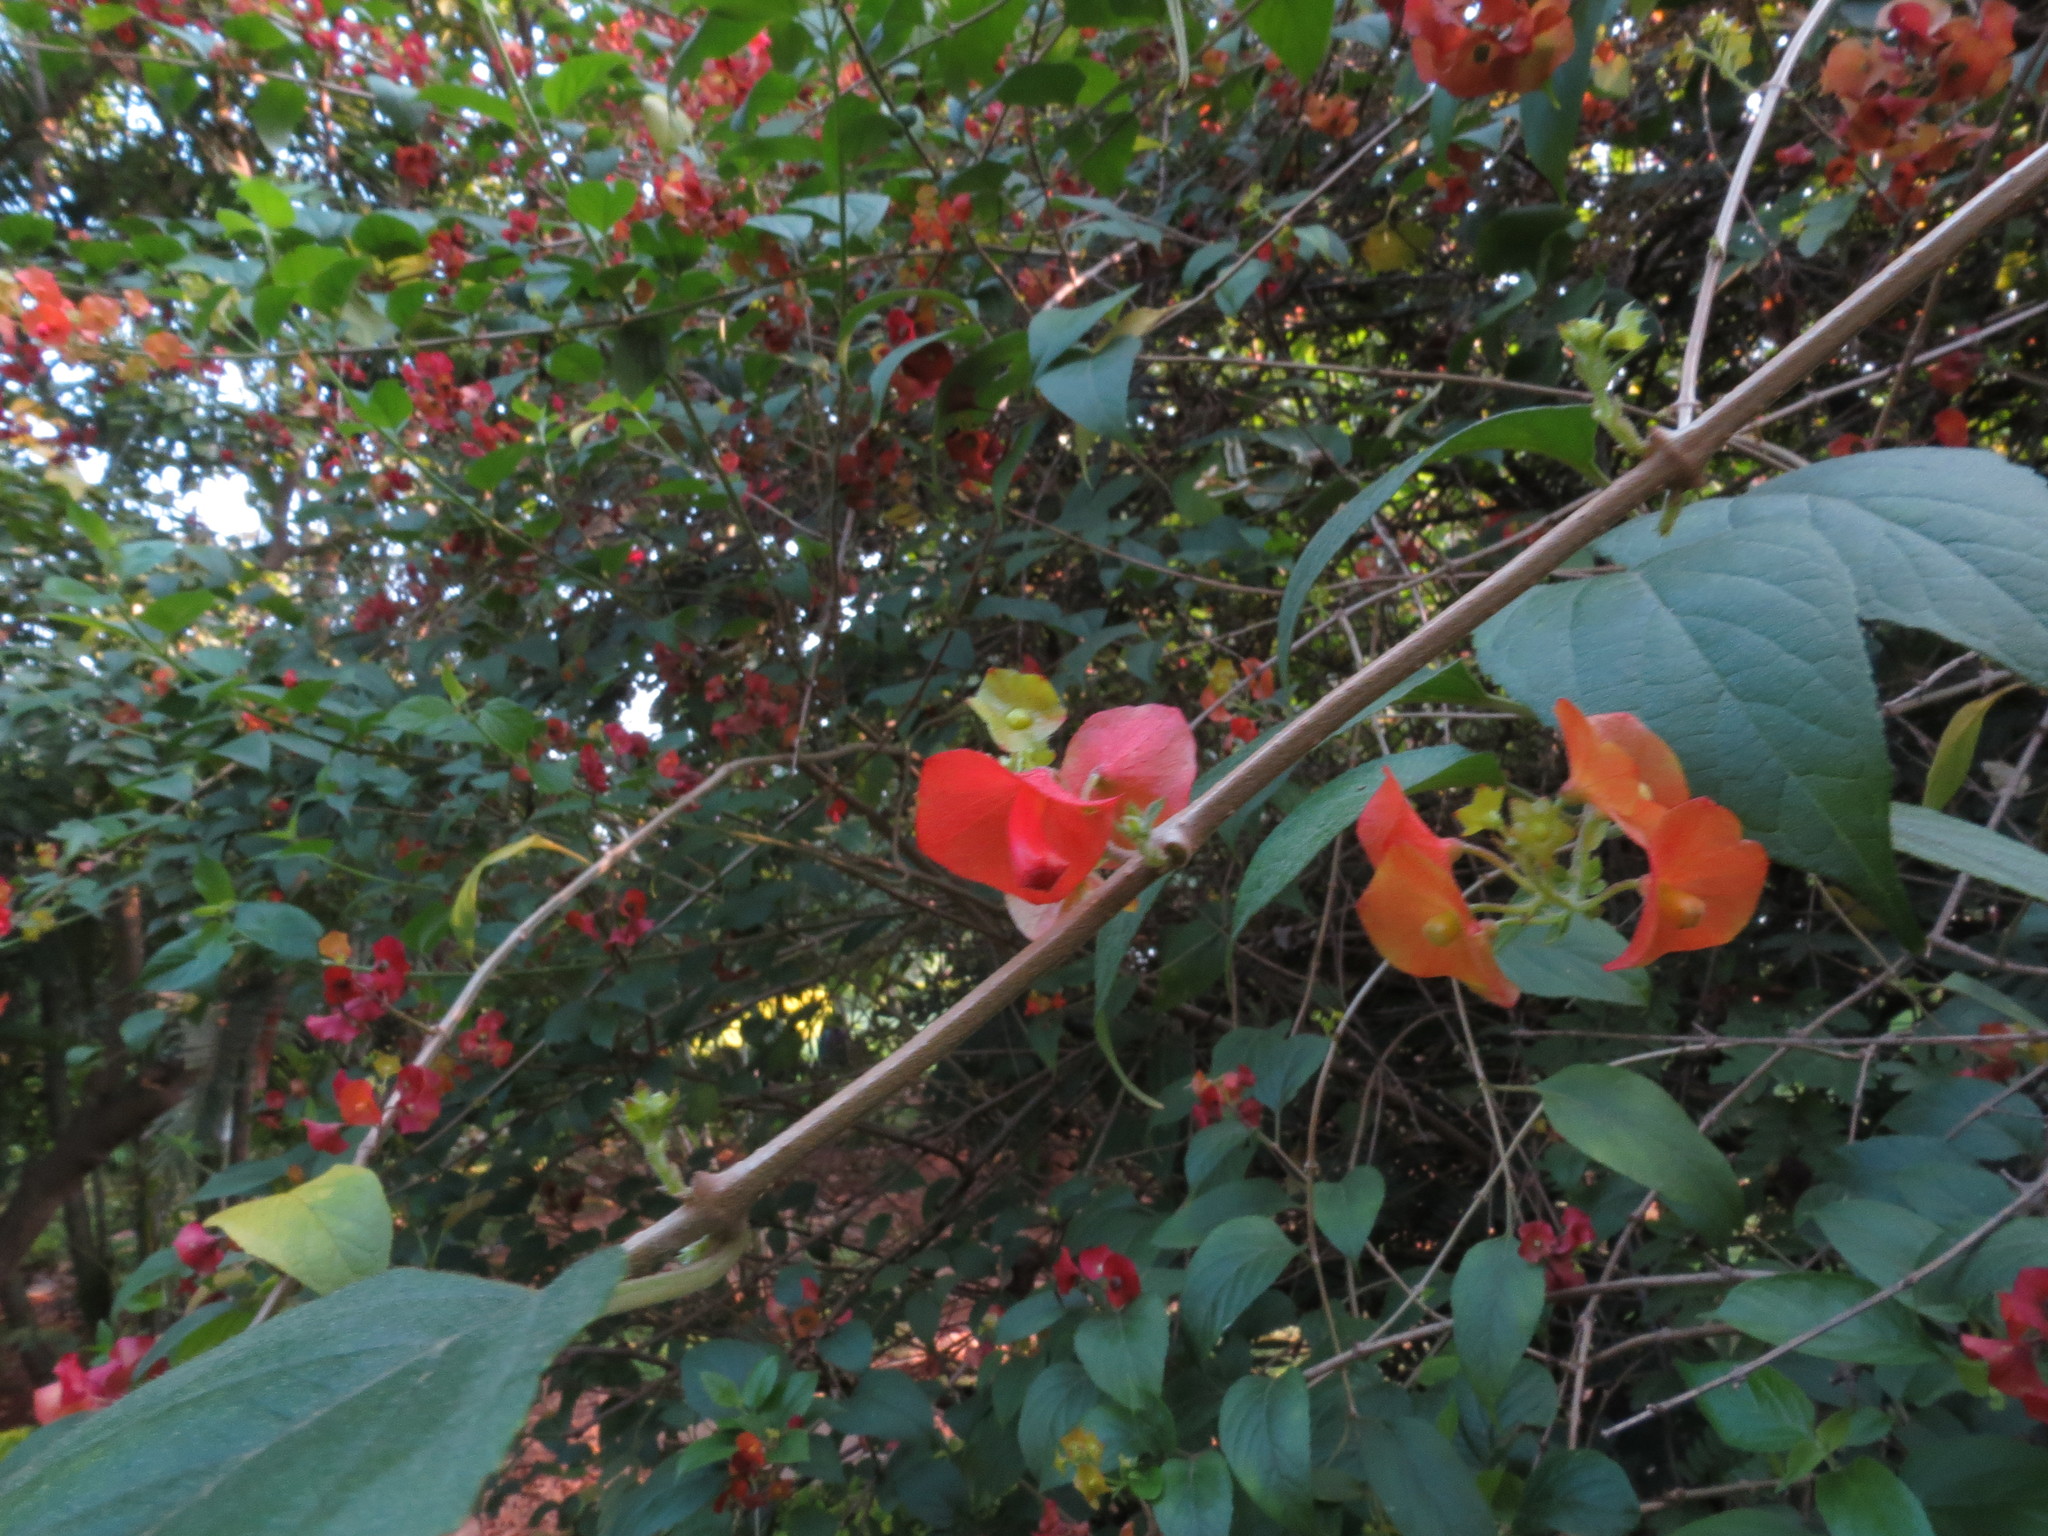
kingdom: Plantae
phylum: Tracheophyta
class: Magnoliopsida
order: Lamiales
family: Lamiaceae
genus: Holmskioldia
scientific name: Holmskioldia sanguinea
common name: Chinese hatplant
